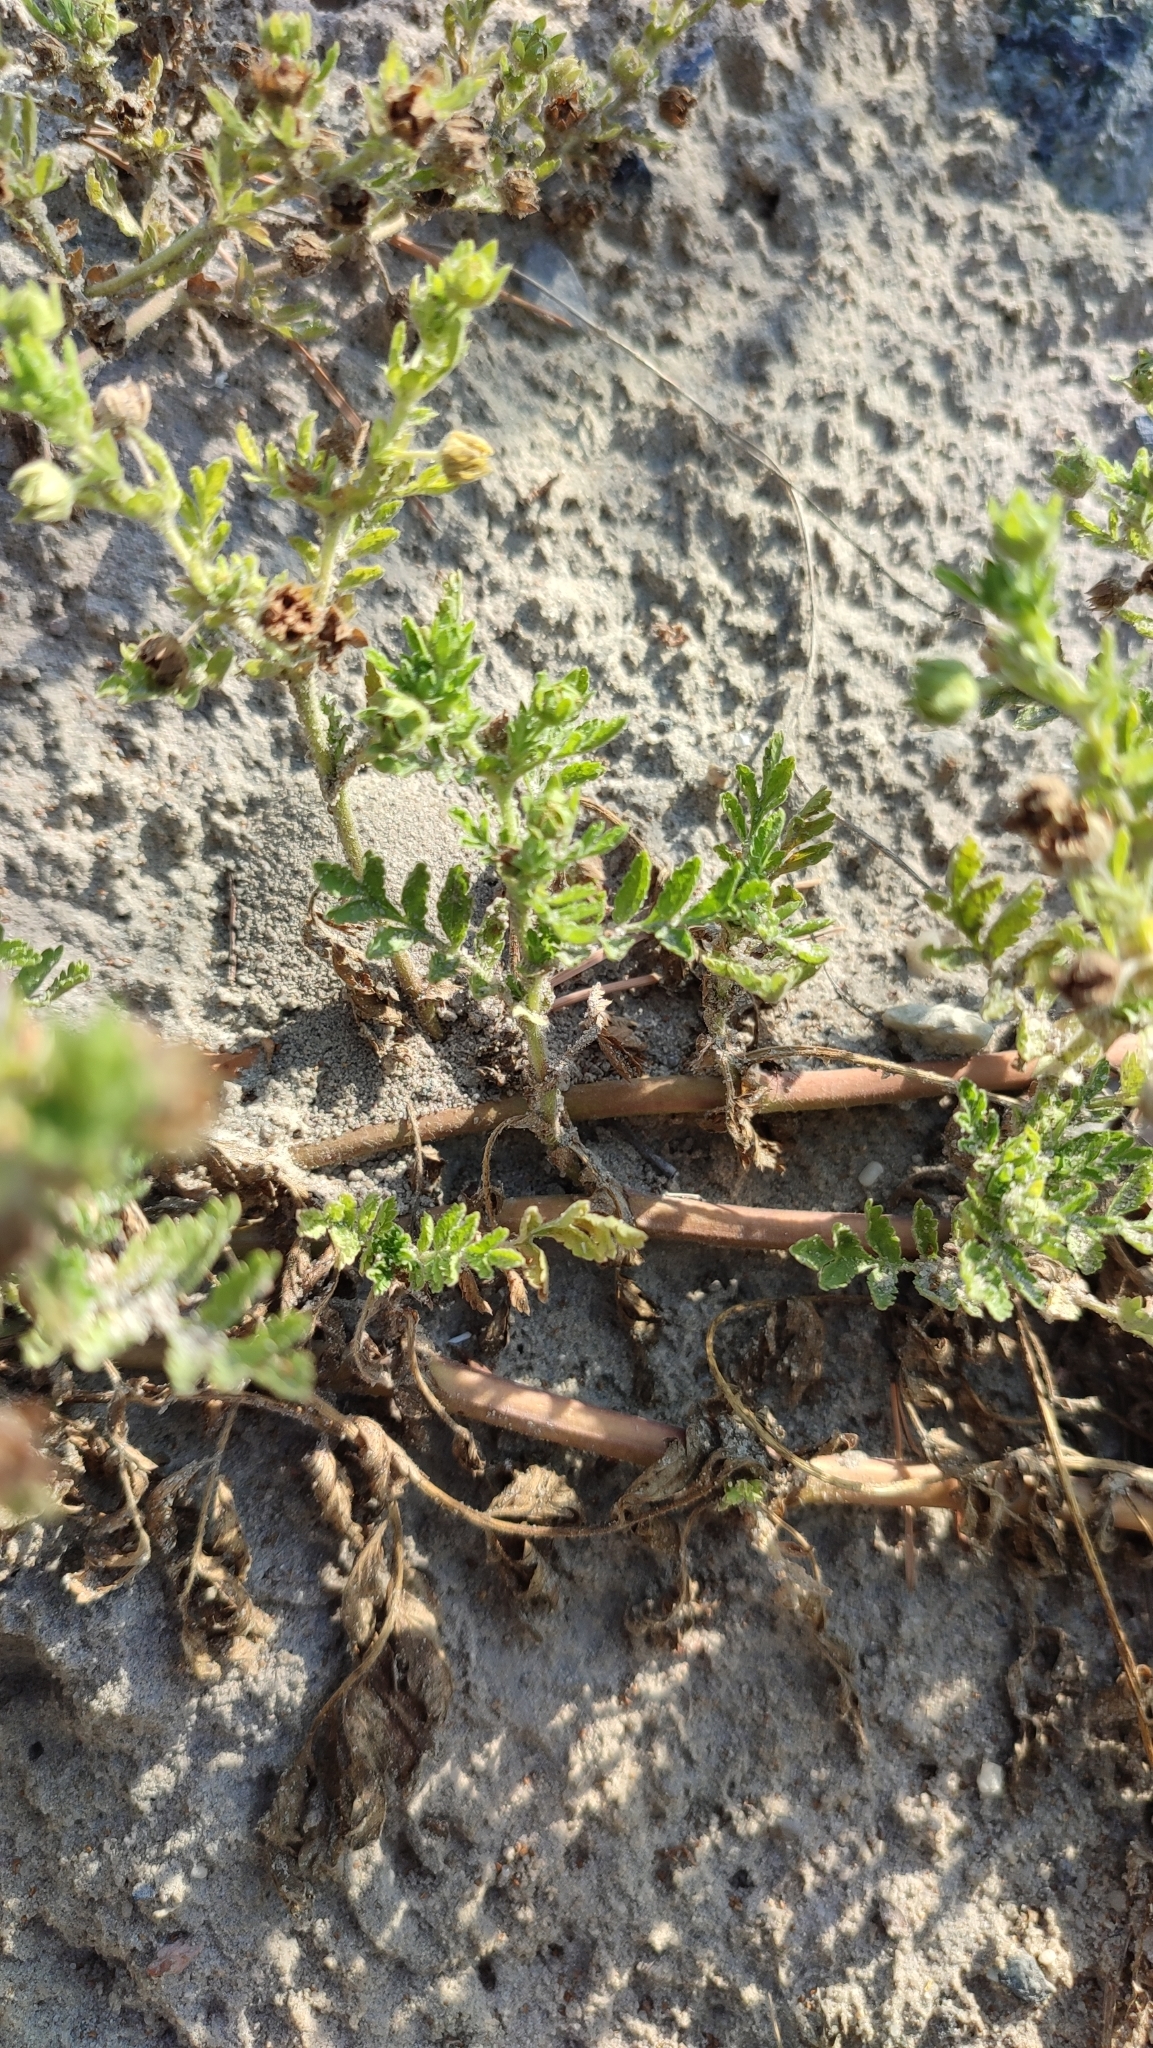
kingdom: Plantae
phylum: Tracheophyta
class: Magnoliopsida
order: Rosales
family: Rosaceae
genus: Potentilla
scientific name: Potentilla supina
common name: Prostrate cinquefoil
